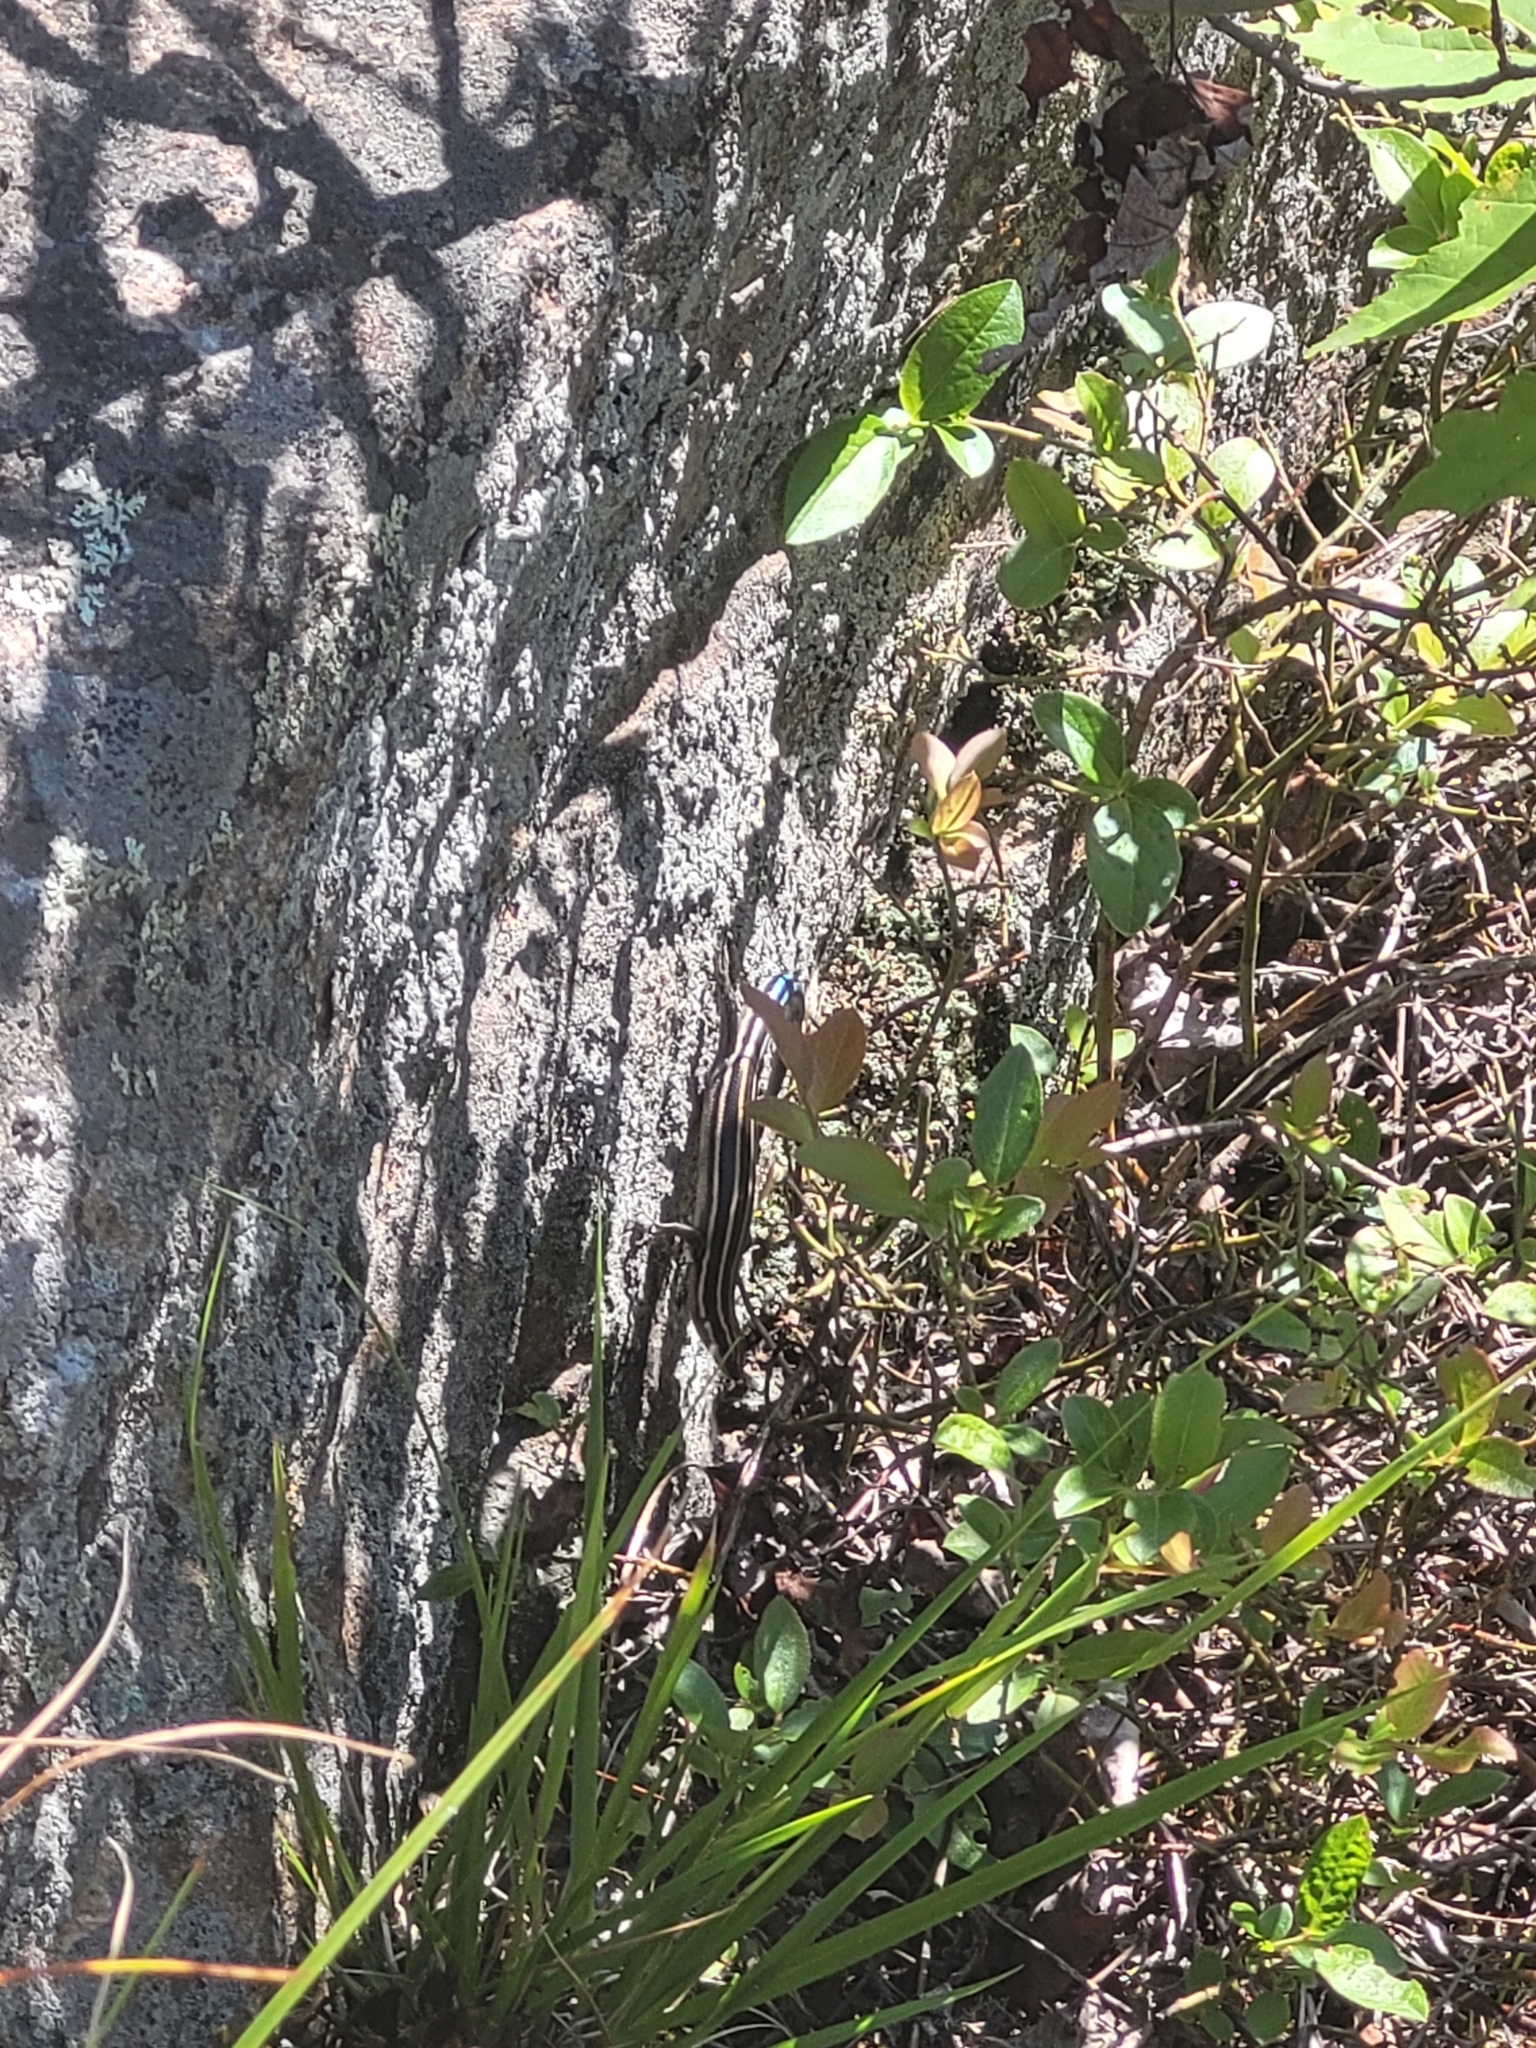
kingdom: Animalia
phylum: Chordata
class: Squamata
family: Scincidae
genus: Plestiodon
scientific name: Plestiodon fasciatus
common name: Five-lined skink
